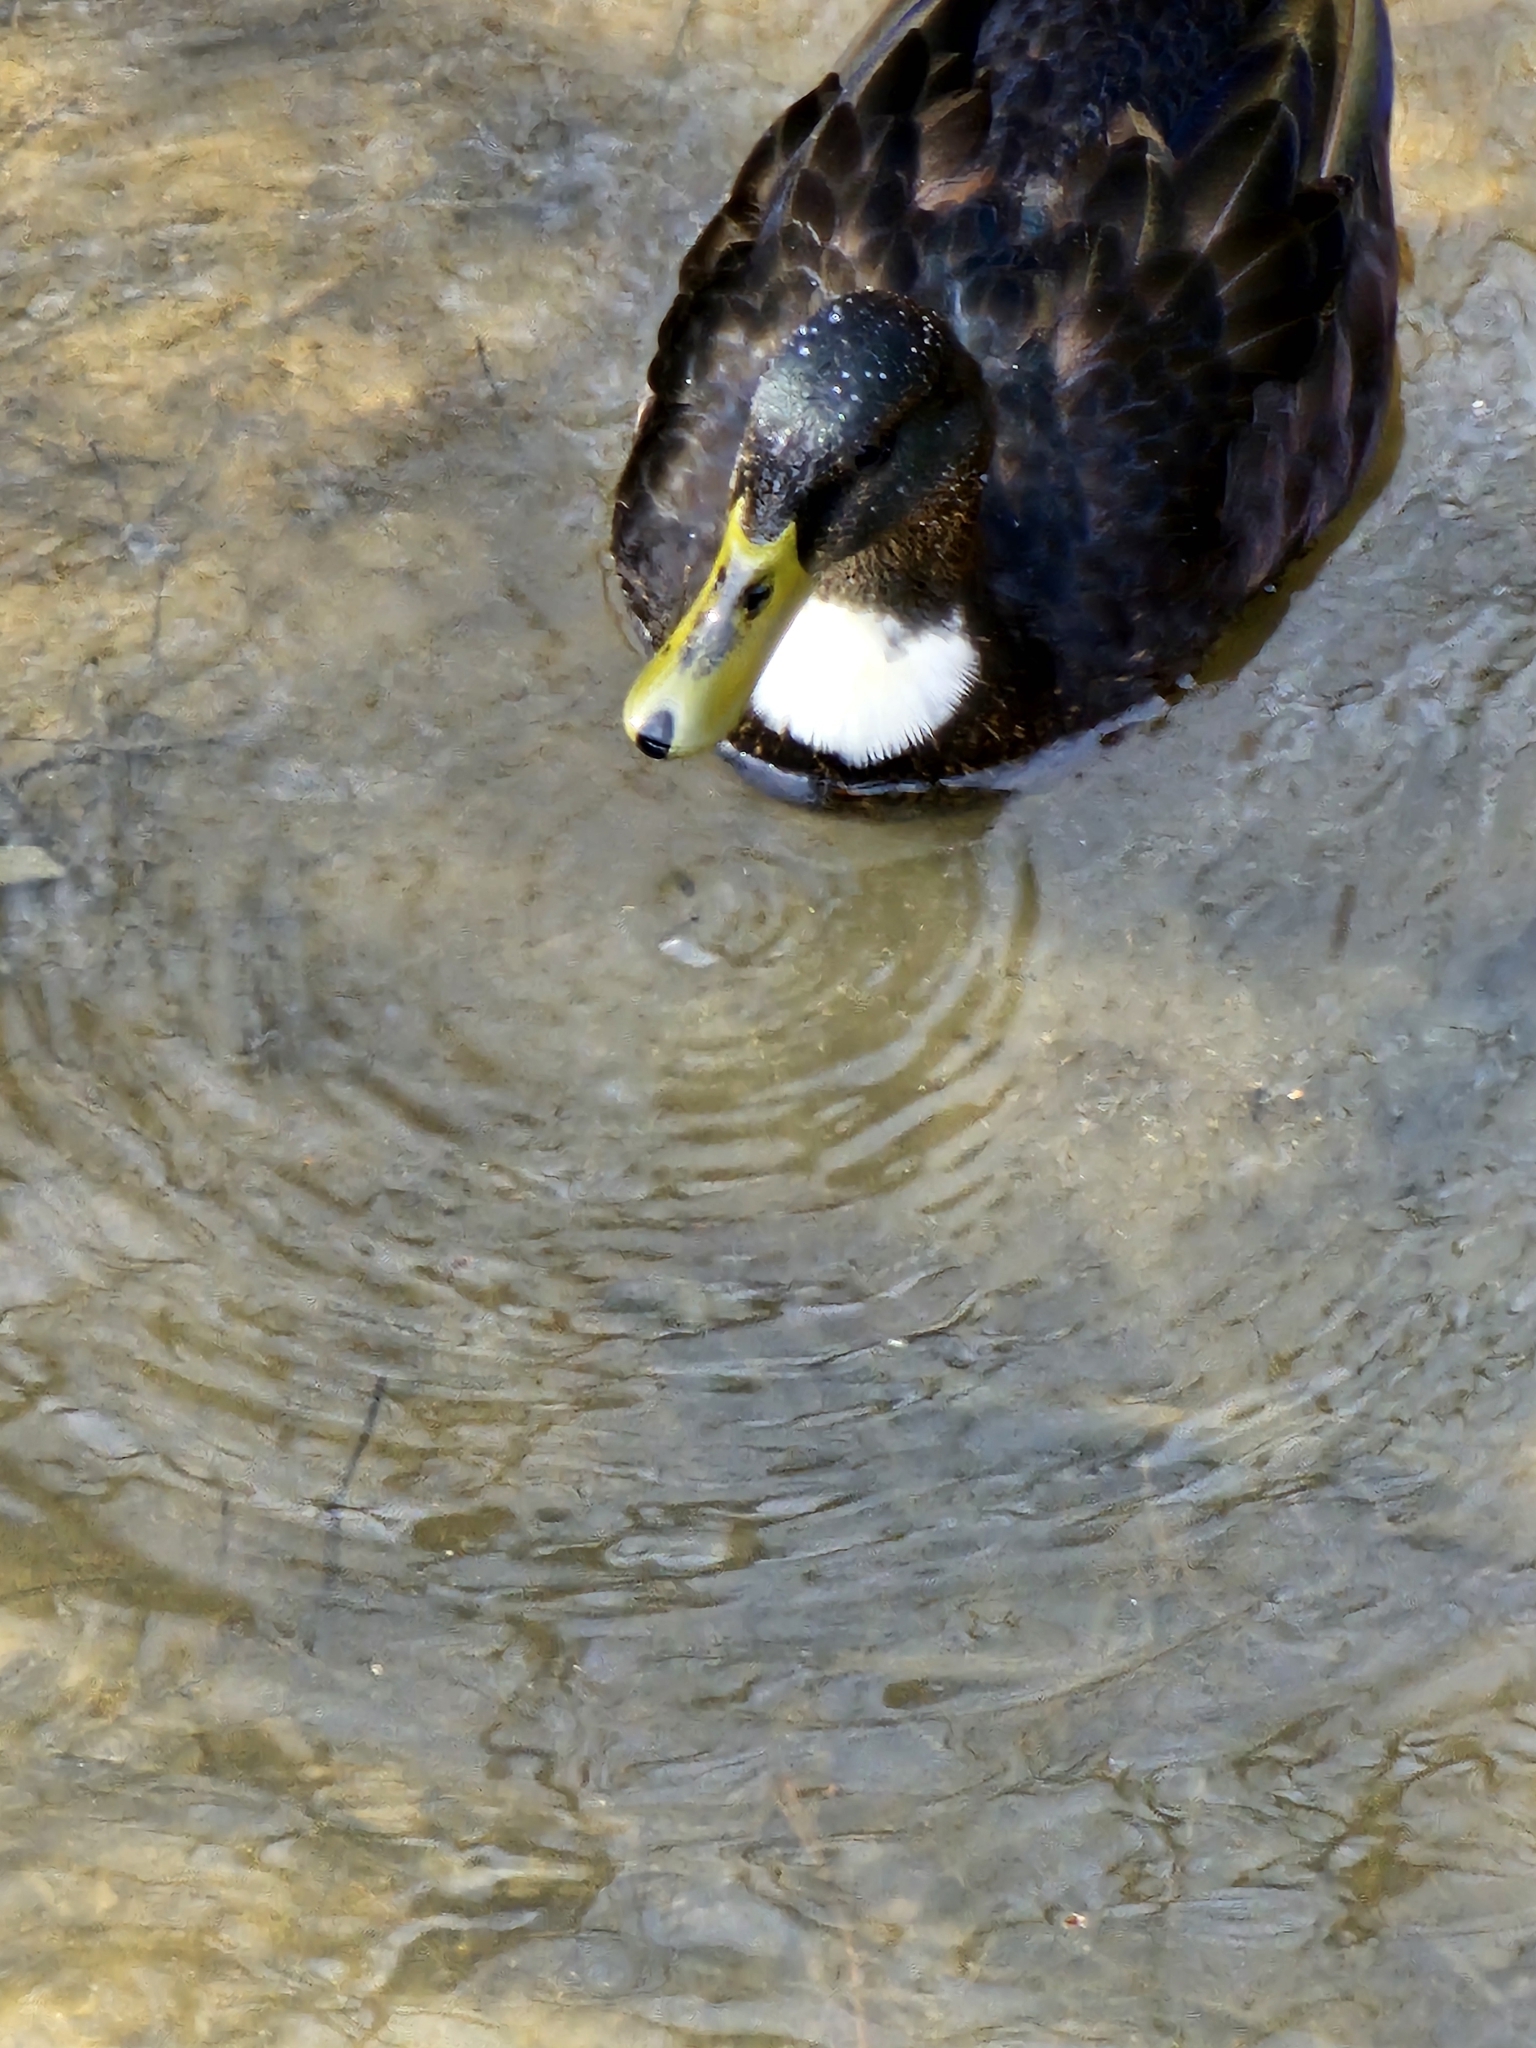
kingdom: Animalia
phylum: Chordata
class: Aves
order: Anseriformes
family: Anatidae
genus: Anas
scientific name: Anas platyrhynchos
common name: Mallard
